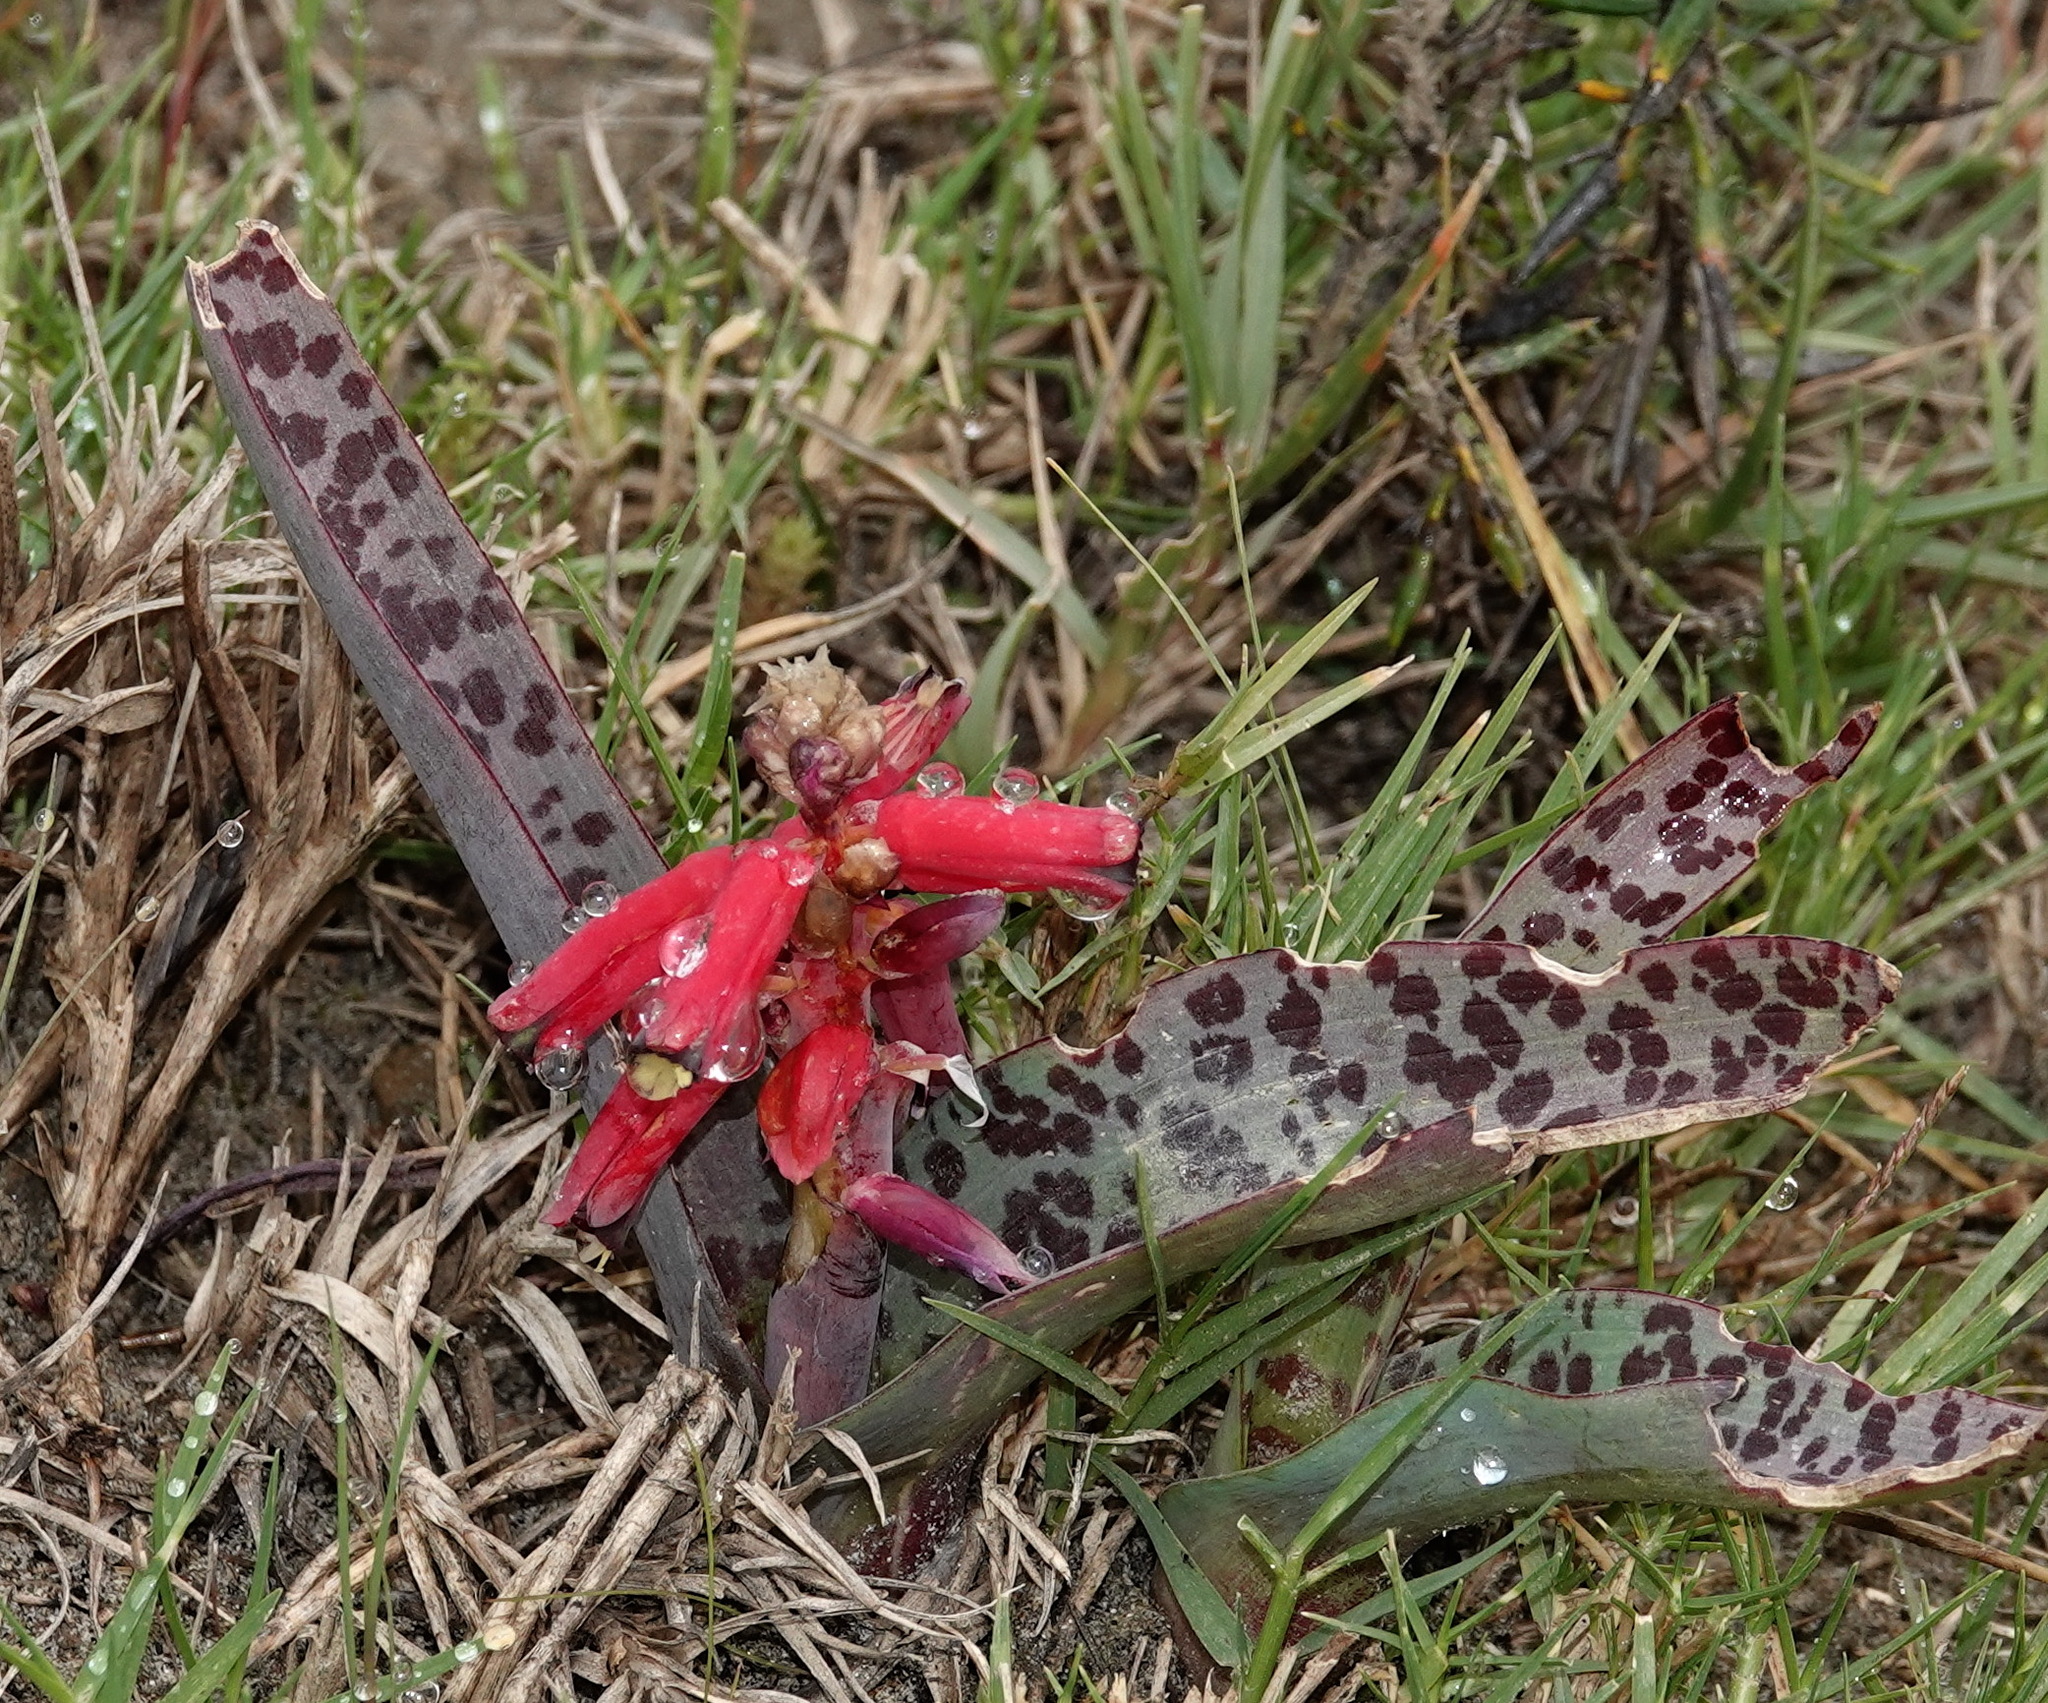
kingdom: Plantae
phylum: Tracheophyta
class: Liliopsida
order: Asparagales
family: Asparagaceae
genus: Lachenalia
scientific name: Lachenalia bulbifera
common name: Red lachenalia
